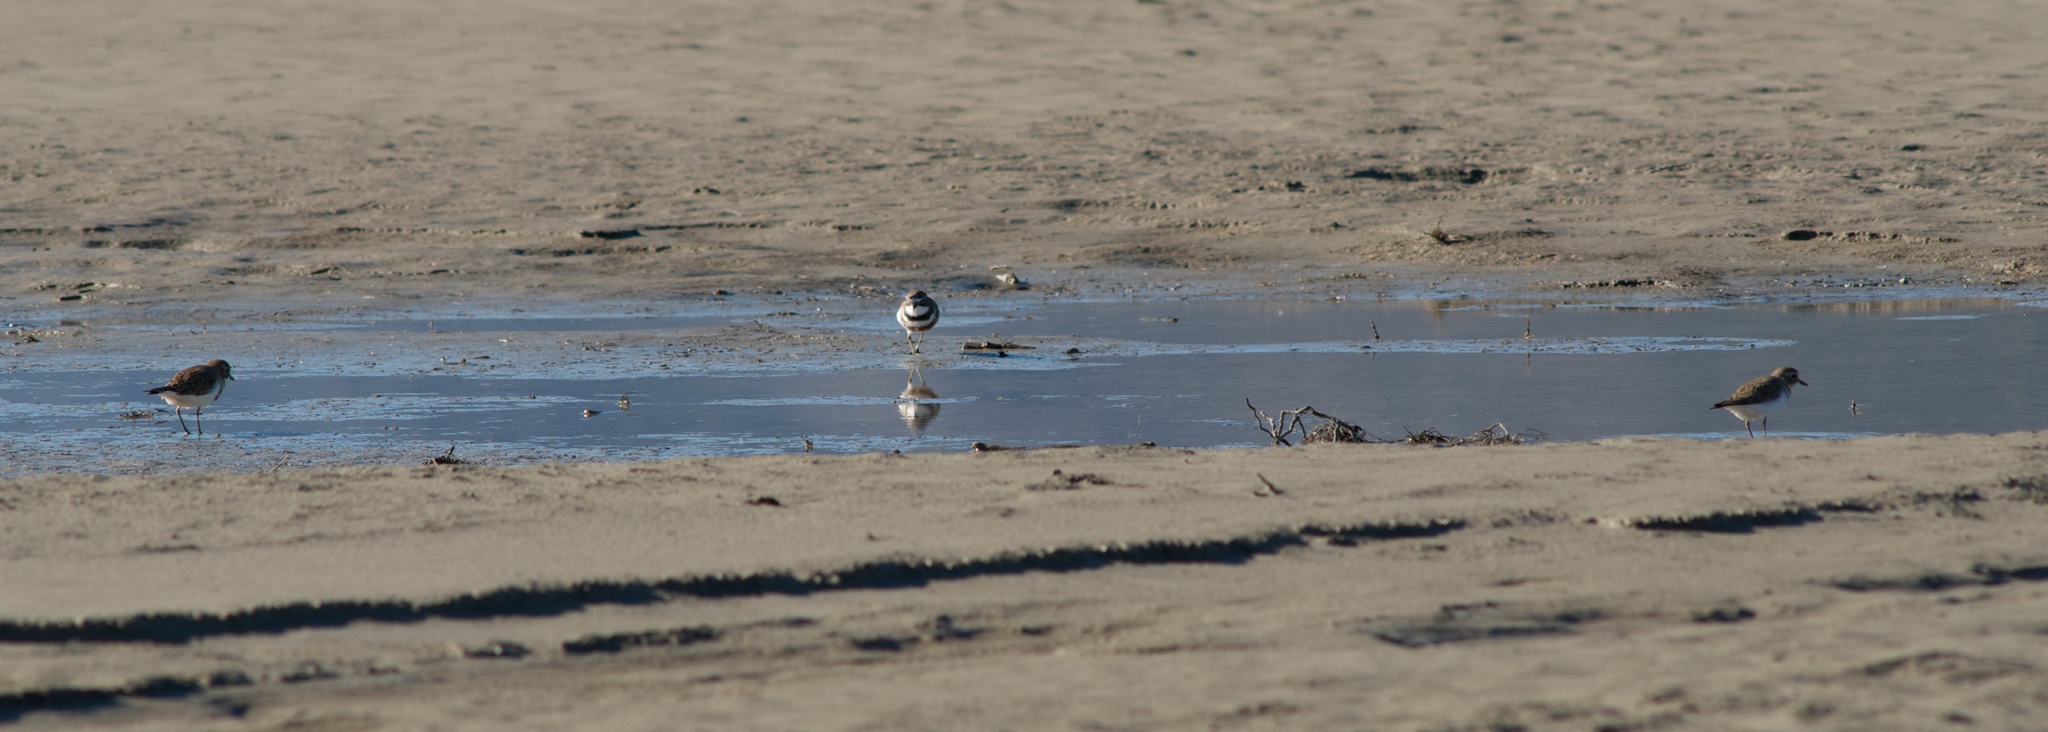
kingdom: Animalia
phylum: Chordata
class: Aves
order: Charadriiformes
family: Charadriidae
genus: Anarhynchus
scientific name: Anarhynchus
